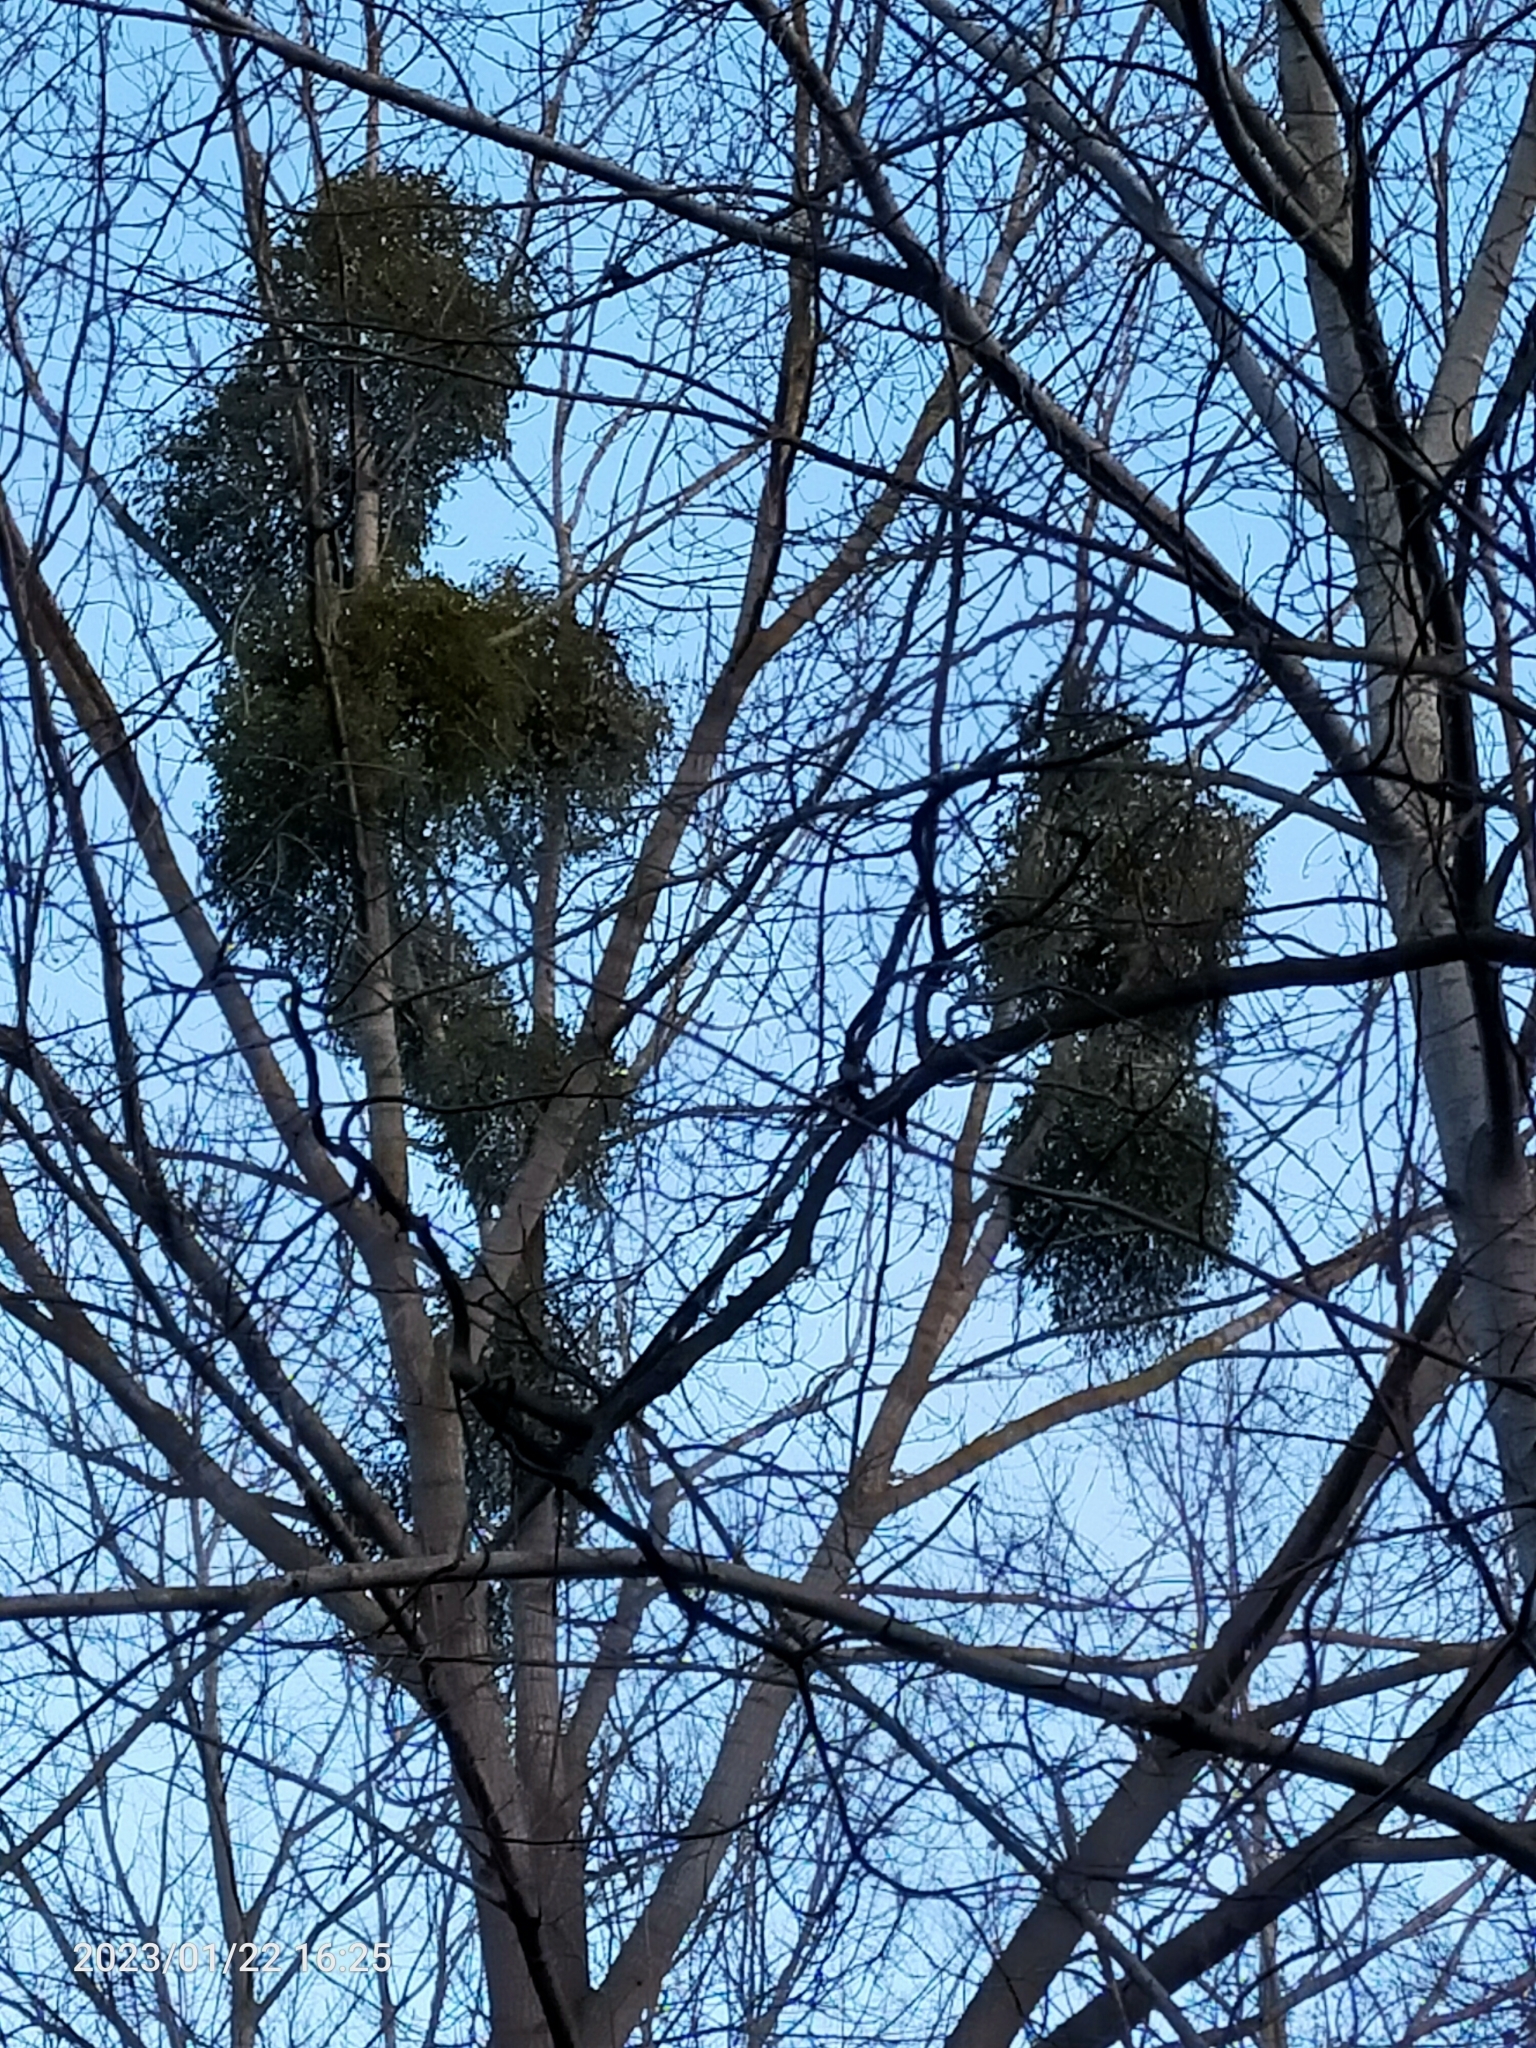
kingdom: Plantae
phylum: Tracheophyta
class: Magnoliopsida
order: Santalales
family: Viscaceae
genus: Viscum
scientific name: Viscum album
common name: Mistletoe
